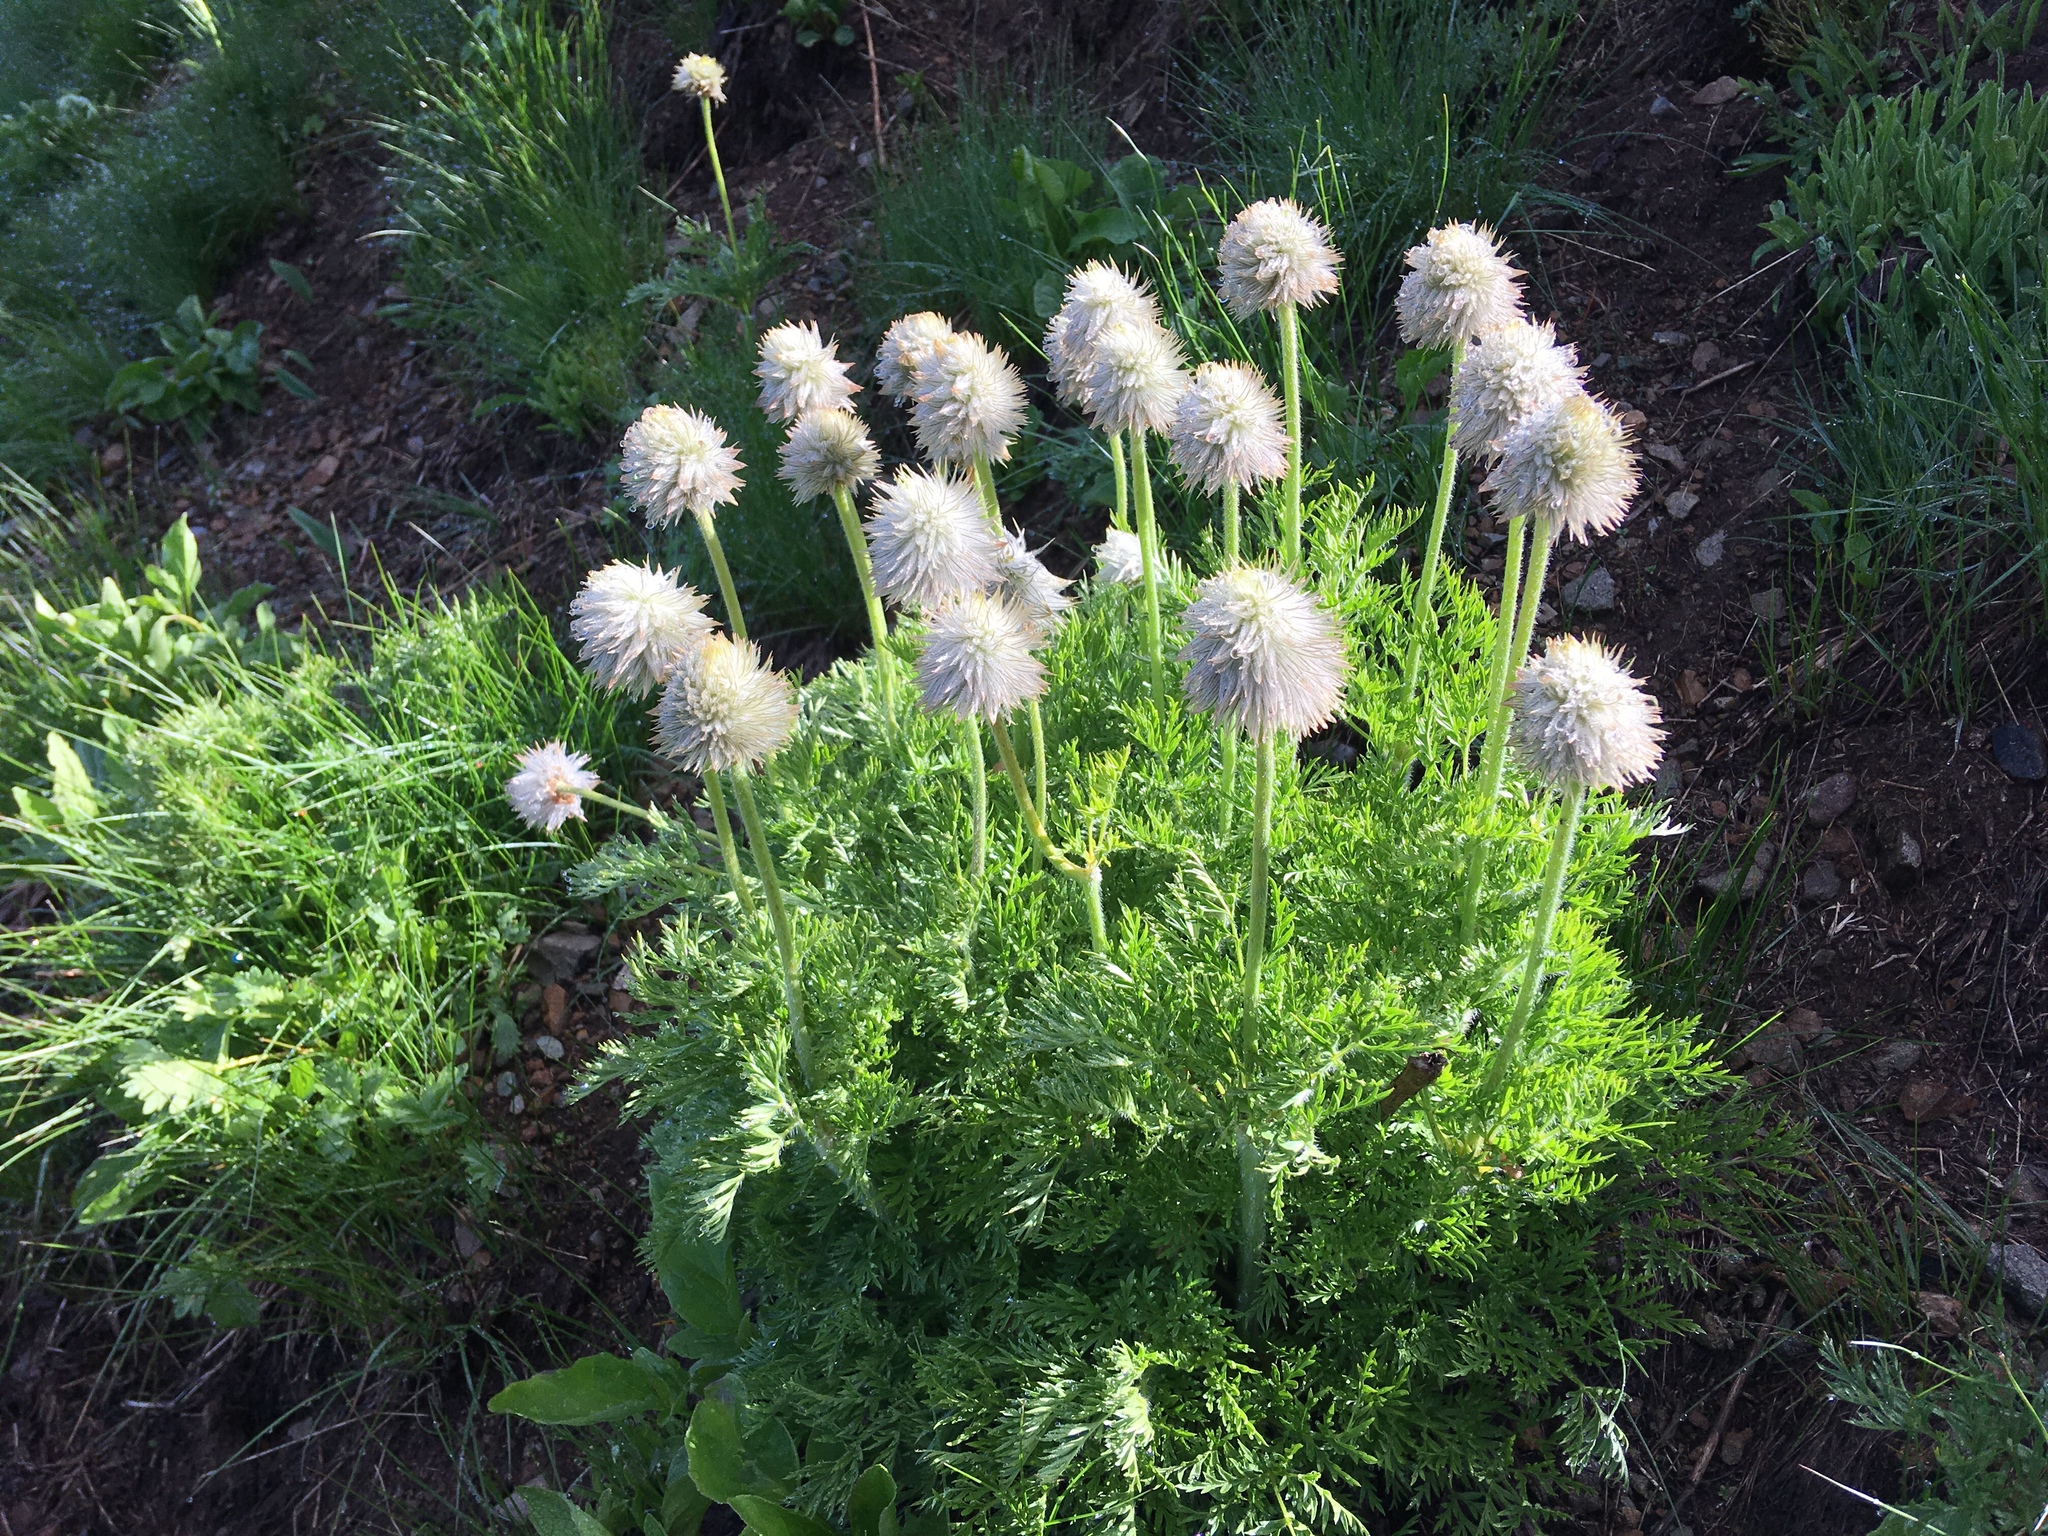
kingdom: Plantae
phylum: Tracheophyta
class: Magnoliopsida
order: Ranunculales
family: Ranunculaceae
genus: Pulsatilla
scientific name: Pulsatilla occidentalis
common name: Mountain pasqueflower
